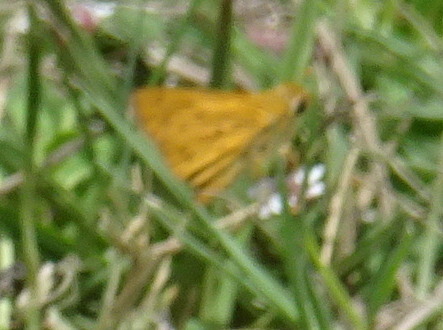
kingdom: Animalia
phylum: Arthropoda
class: Insecta
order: Lepidoptera
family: Hesperiidae
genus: Hylephila
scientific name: Hylephila phyleus
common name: Fiery skipper
